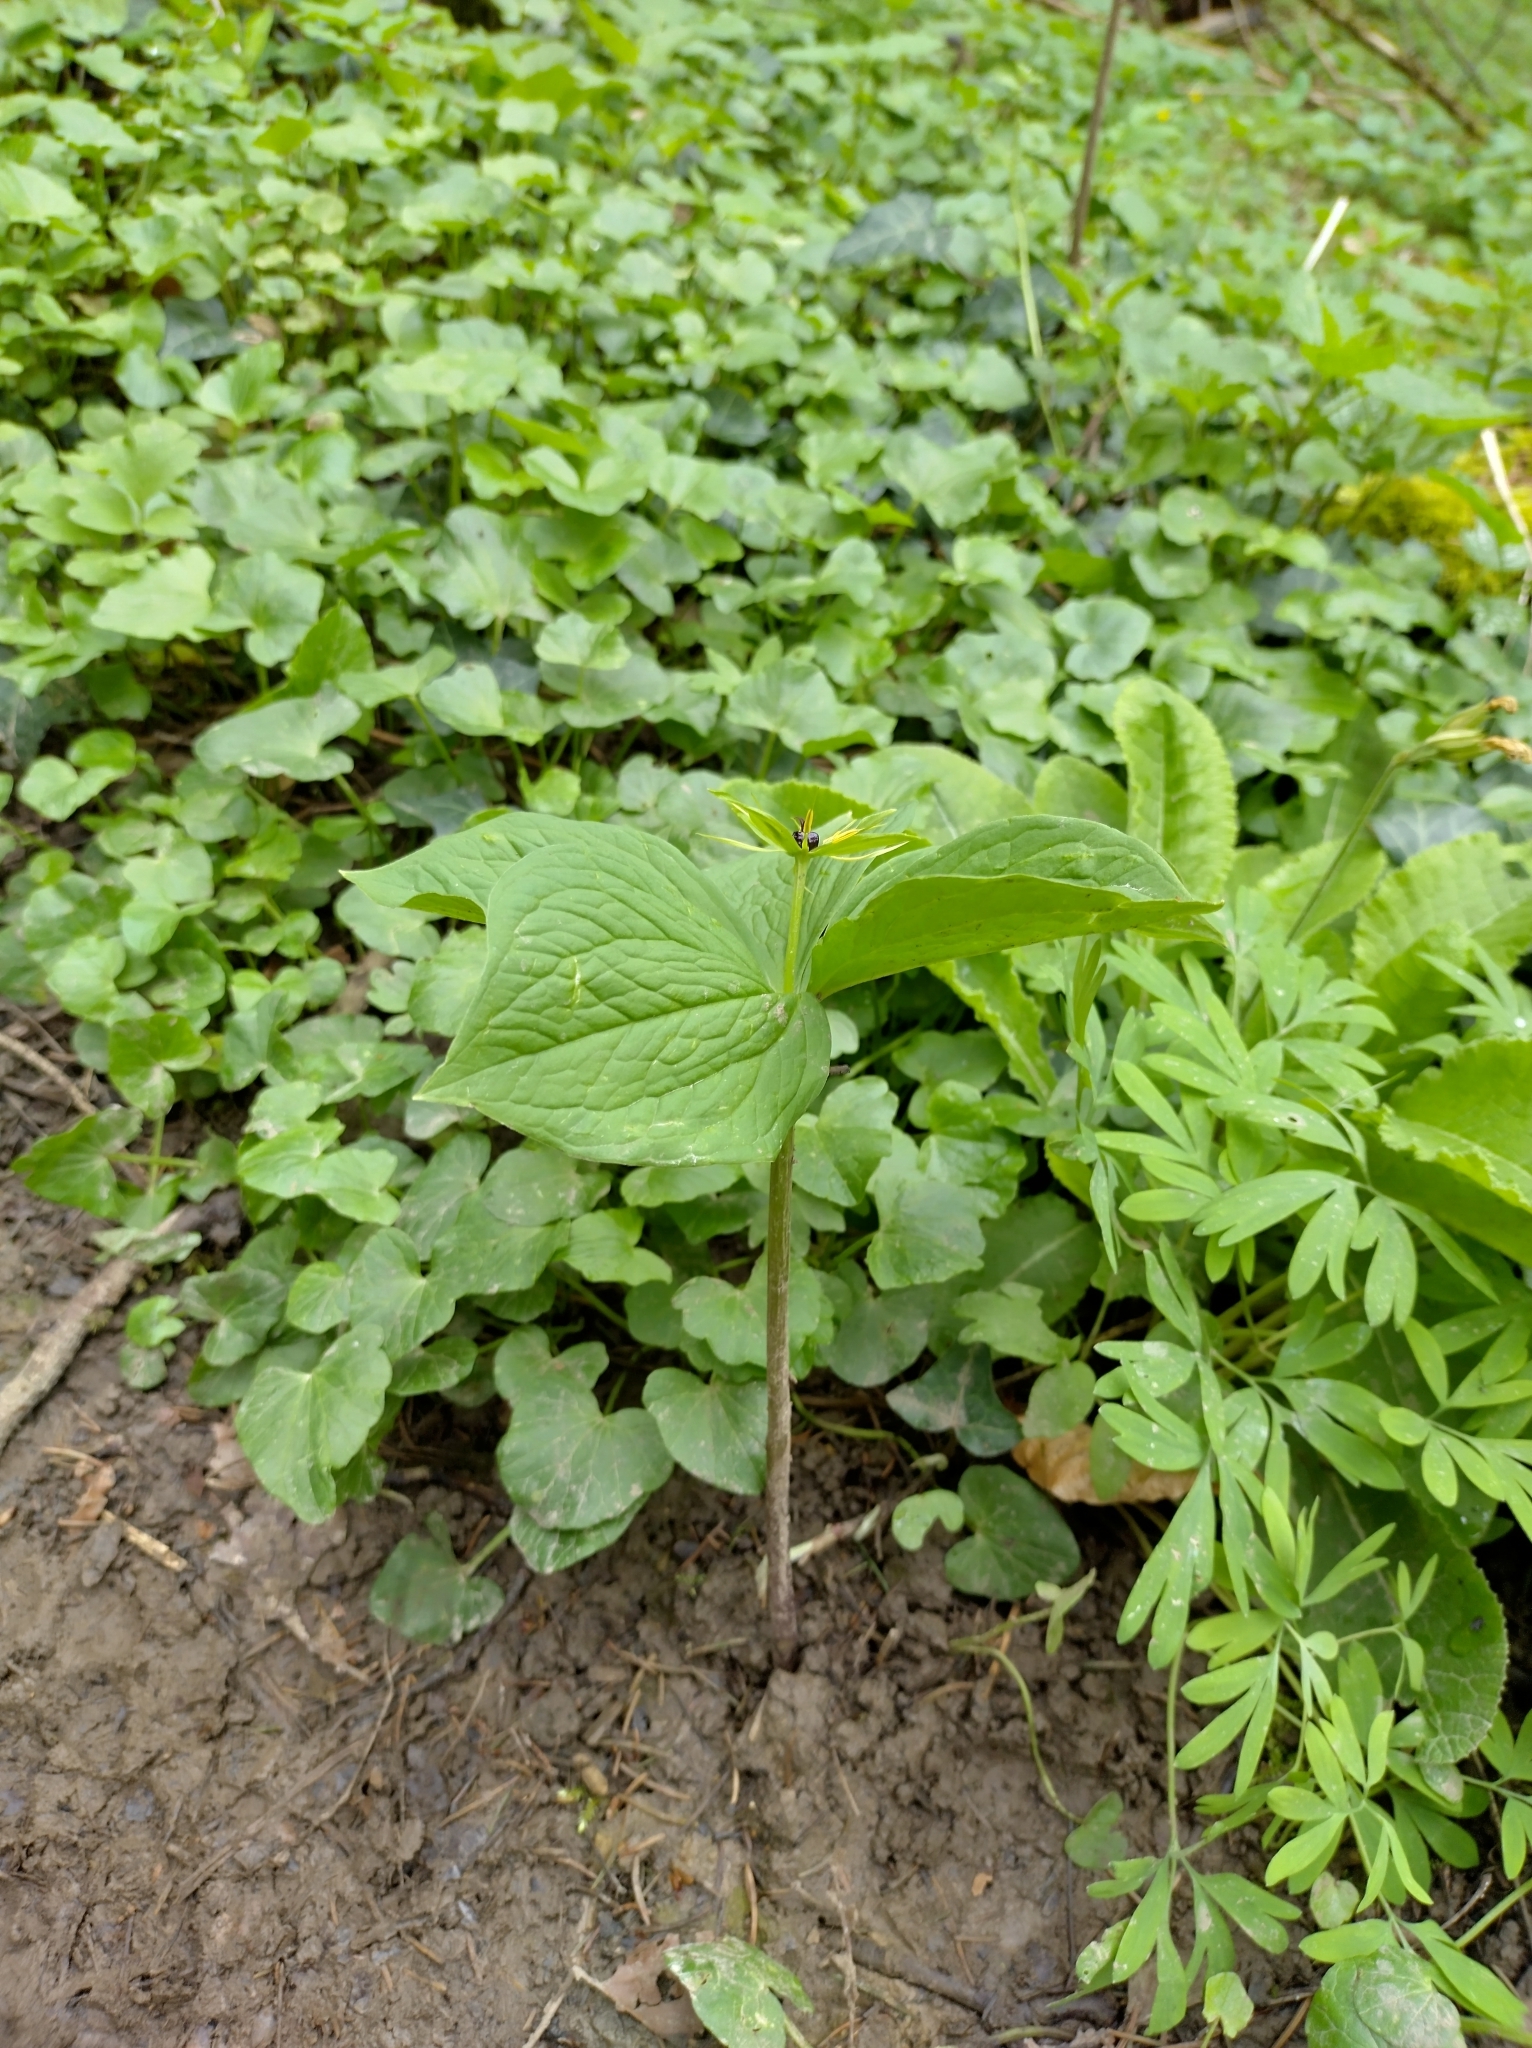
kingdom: Plantae
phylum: Tracheophyta
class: Liliopsida
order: Liliales
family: Melanthiaceae
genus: Paris
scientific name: Paris quadrifolia
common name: Herb-paris
